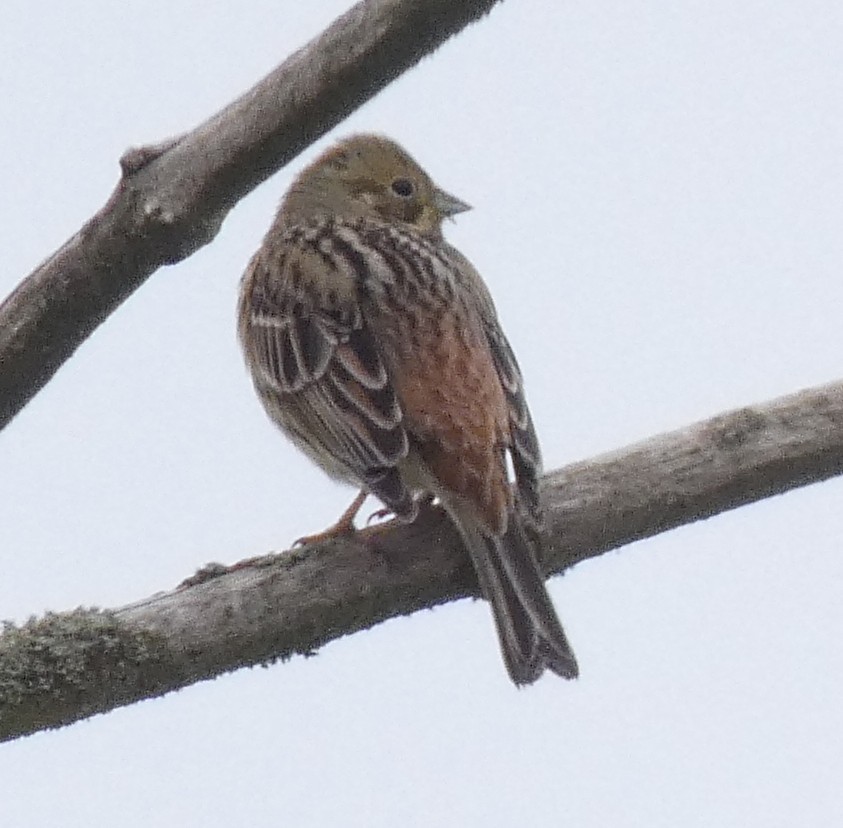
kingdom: Animalia
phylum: Chordata
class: Aves
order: Passeriformes
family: Emberizidae
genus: Emberiza
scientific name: Emberiza citrinella
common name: Yellowhammer
